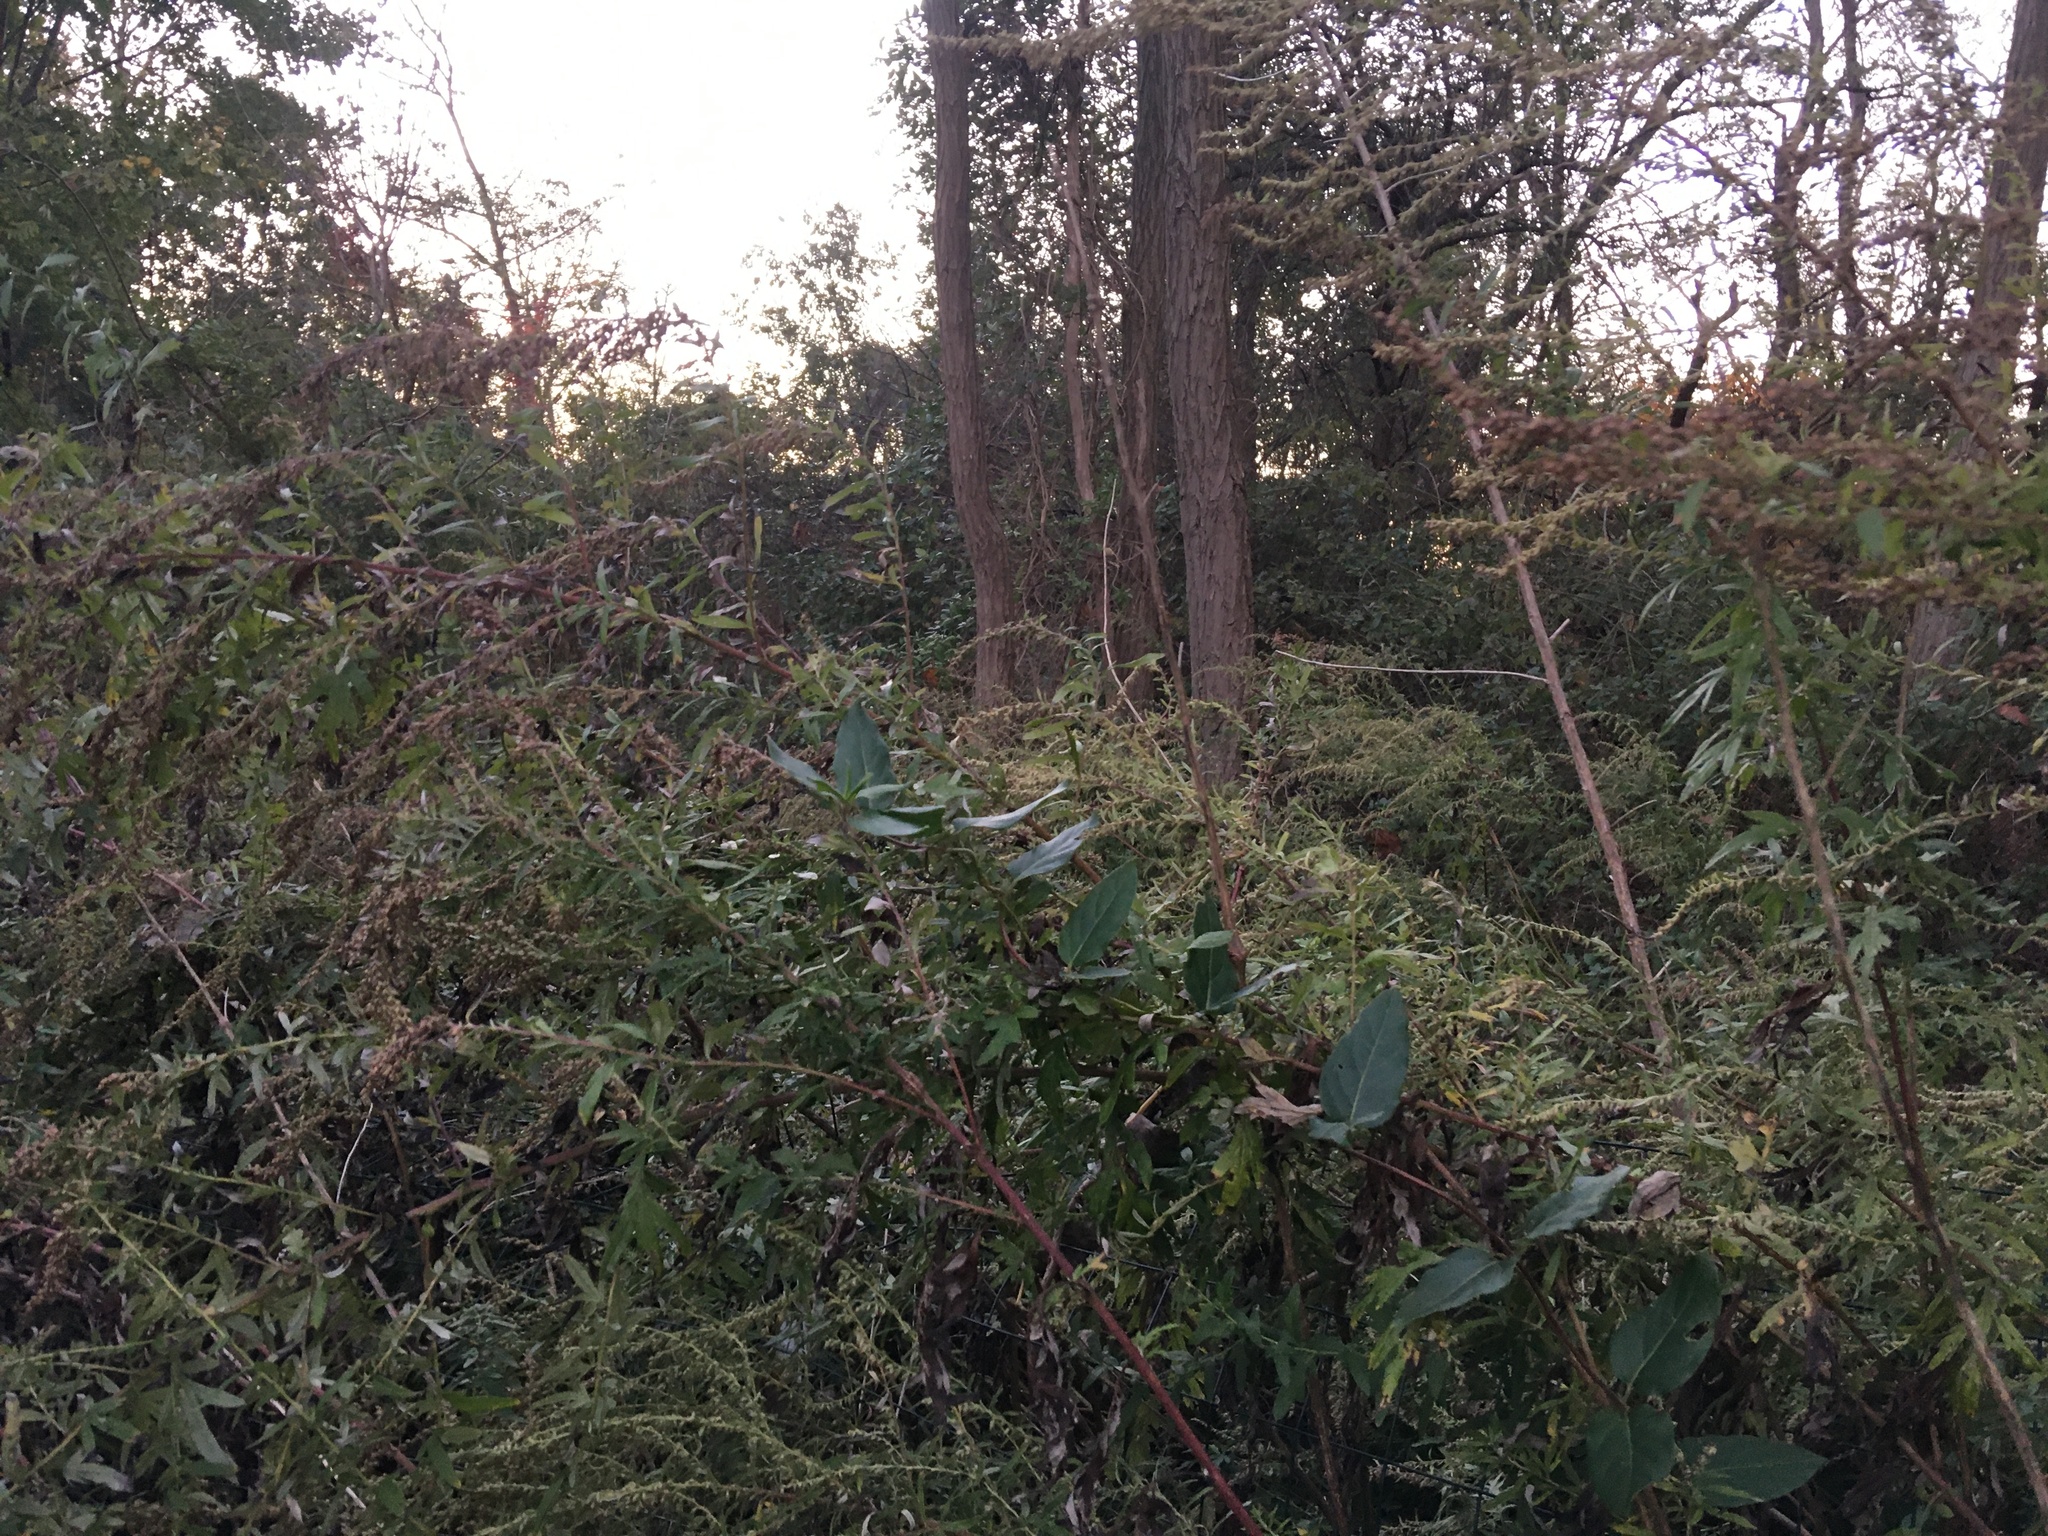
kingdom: Plantae
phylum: Tracheophyta
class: Magnoliopsida
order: Asterales
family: Asteraceae
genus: Artemisia
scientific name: Artemisia vulgaris
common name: Mugwort
